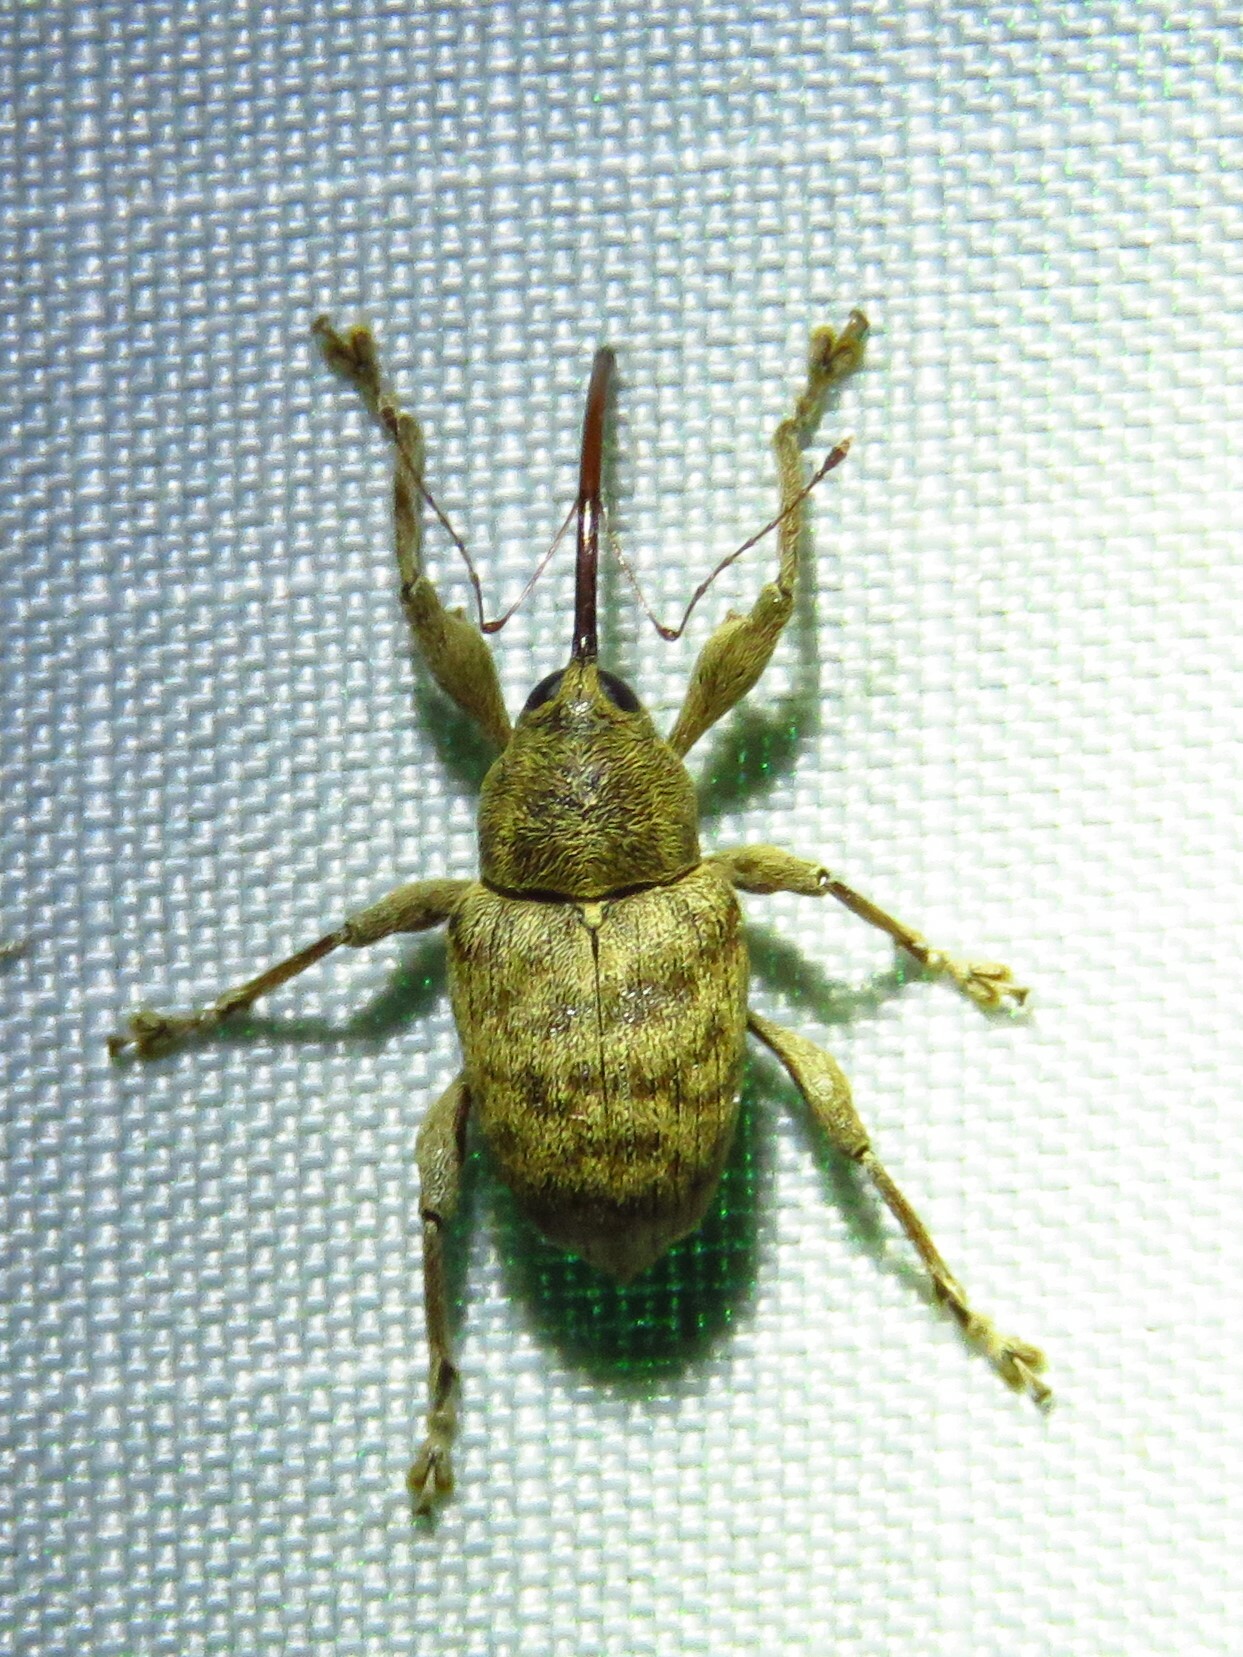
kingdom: Animalia
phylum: Arthropoda
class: Insecta
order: Coleoptera
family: Curculionidae
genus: Curculio
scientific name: Curculio
